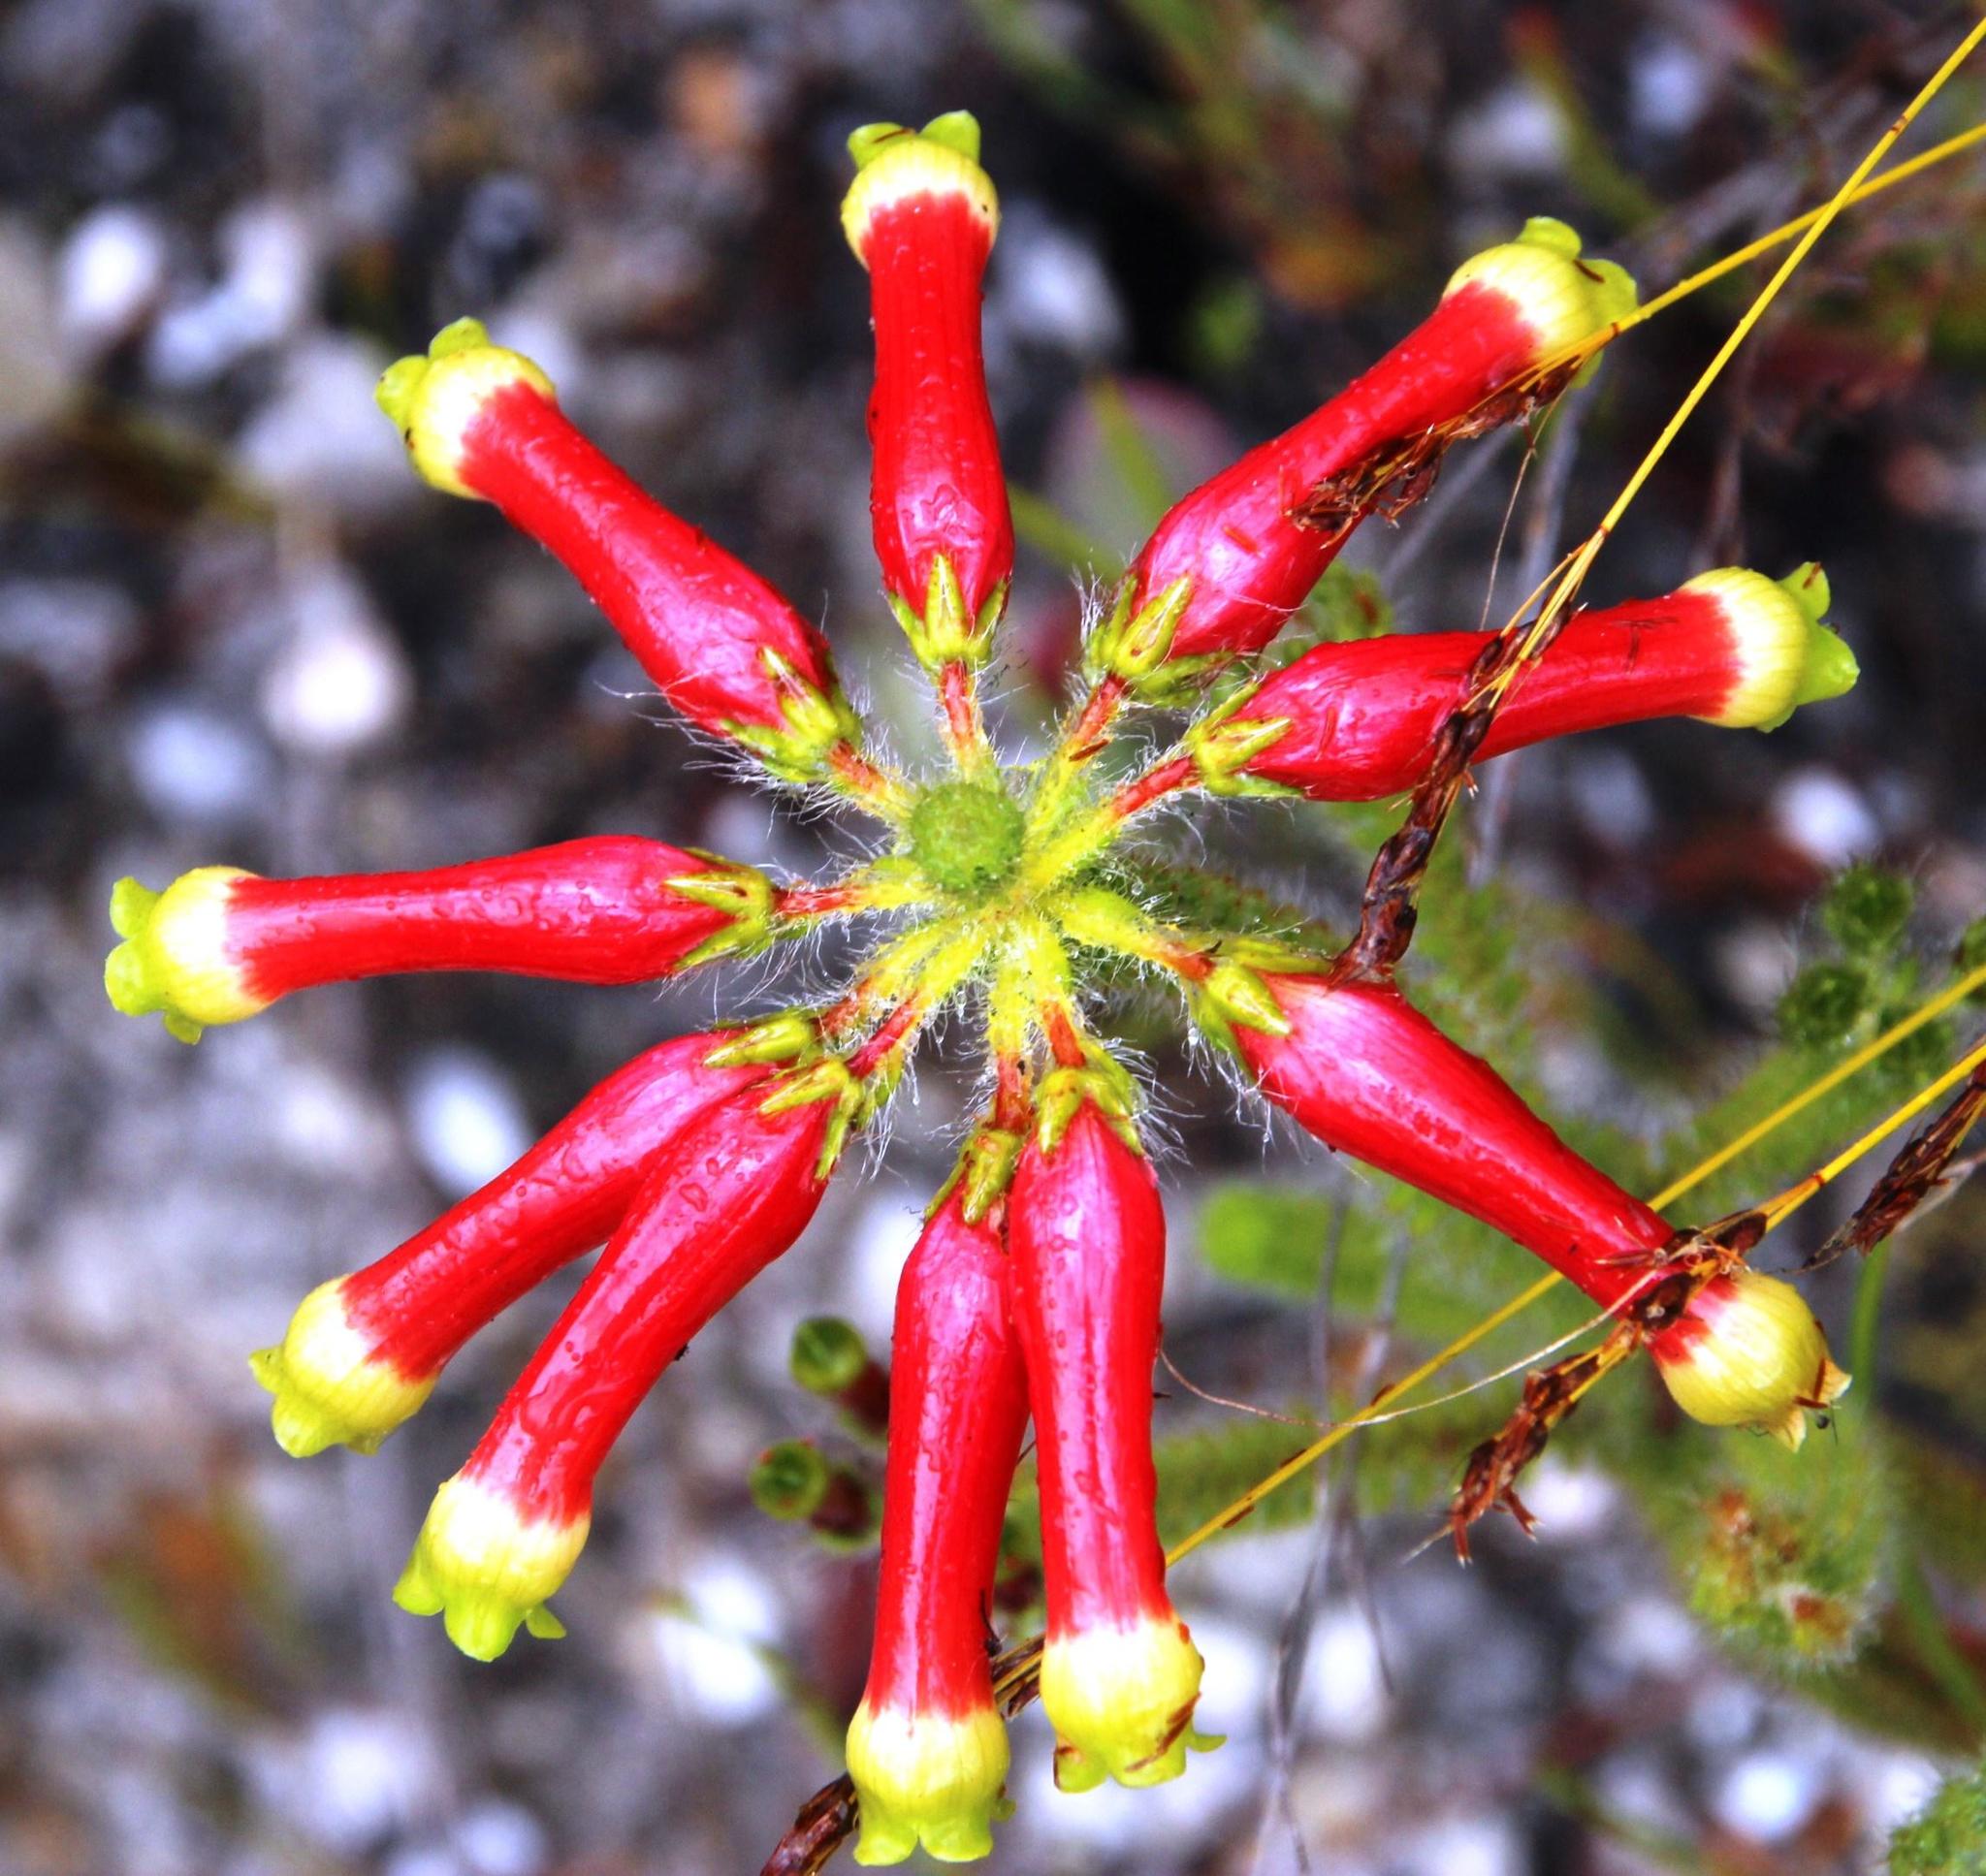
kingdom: Plantae
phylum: Tracheophyta
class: Magnoliopsida
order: Ericales
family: Ericaceae
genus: Erica
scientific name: Erica massonii
